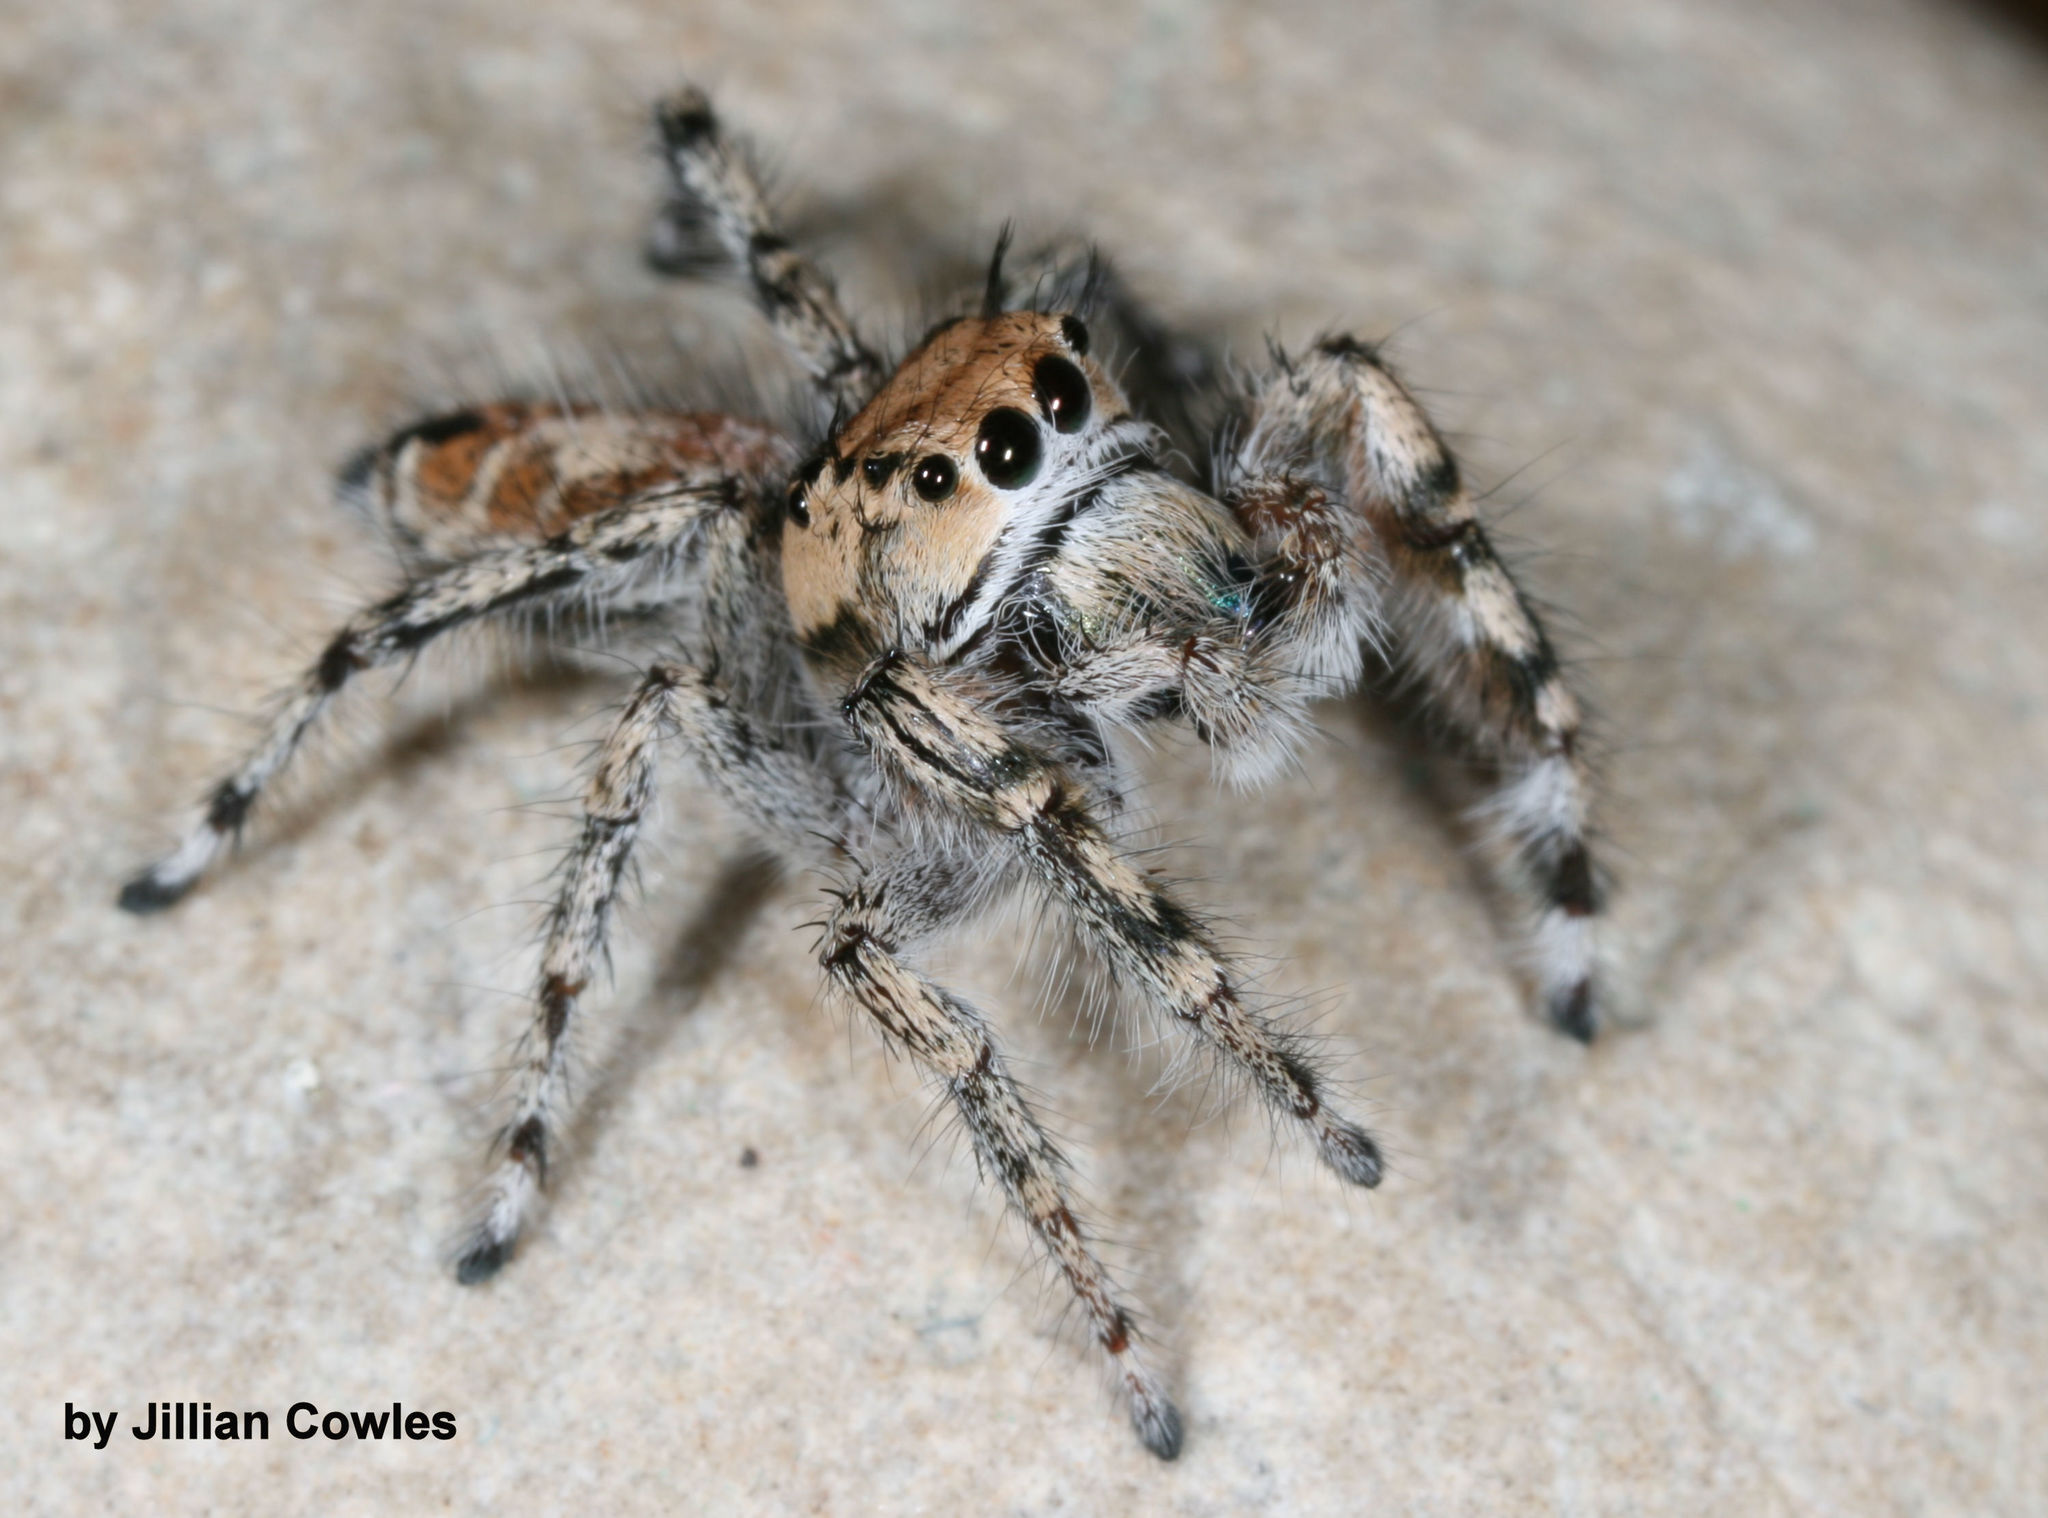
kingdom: Animalia
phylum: Arthropoda
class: Arachnida
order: Araneae
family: Salticidae
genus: Phidippus
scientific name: Phidippus phoenix
